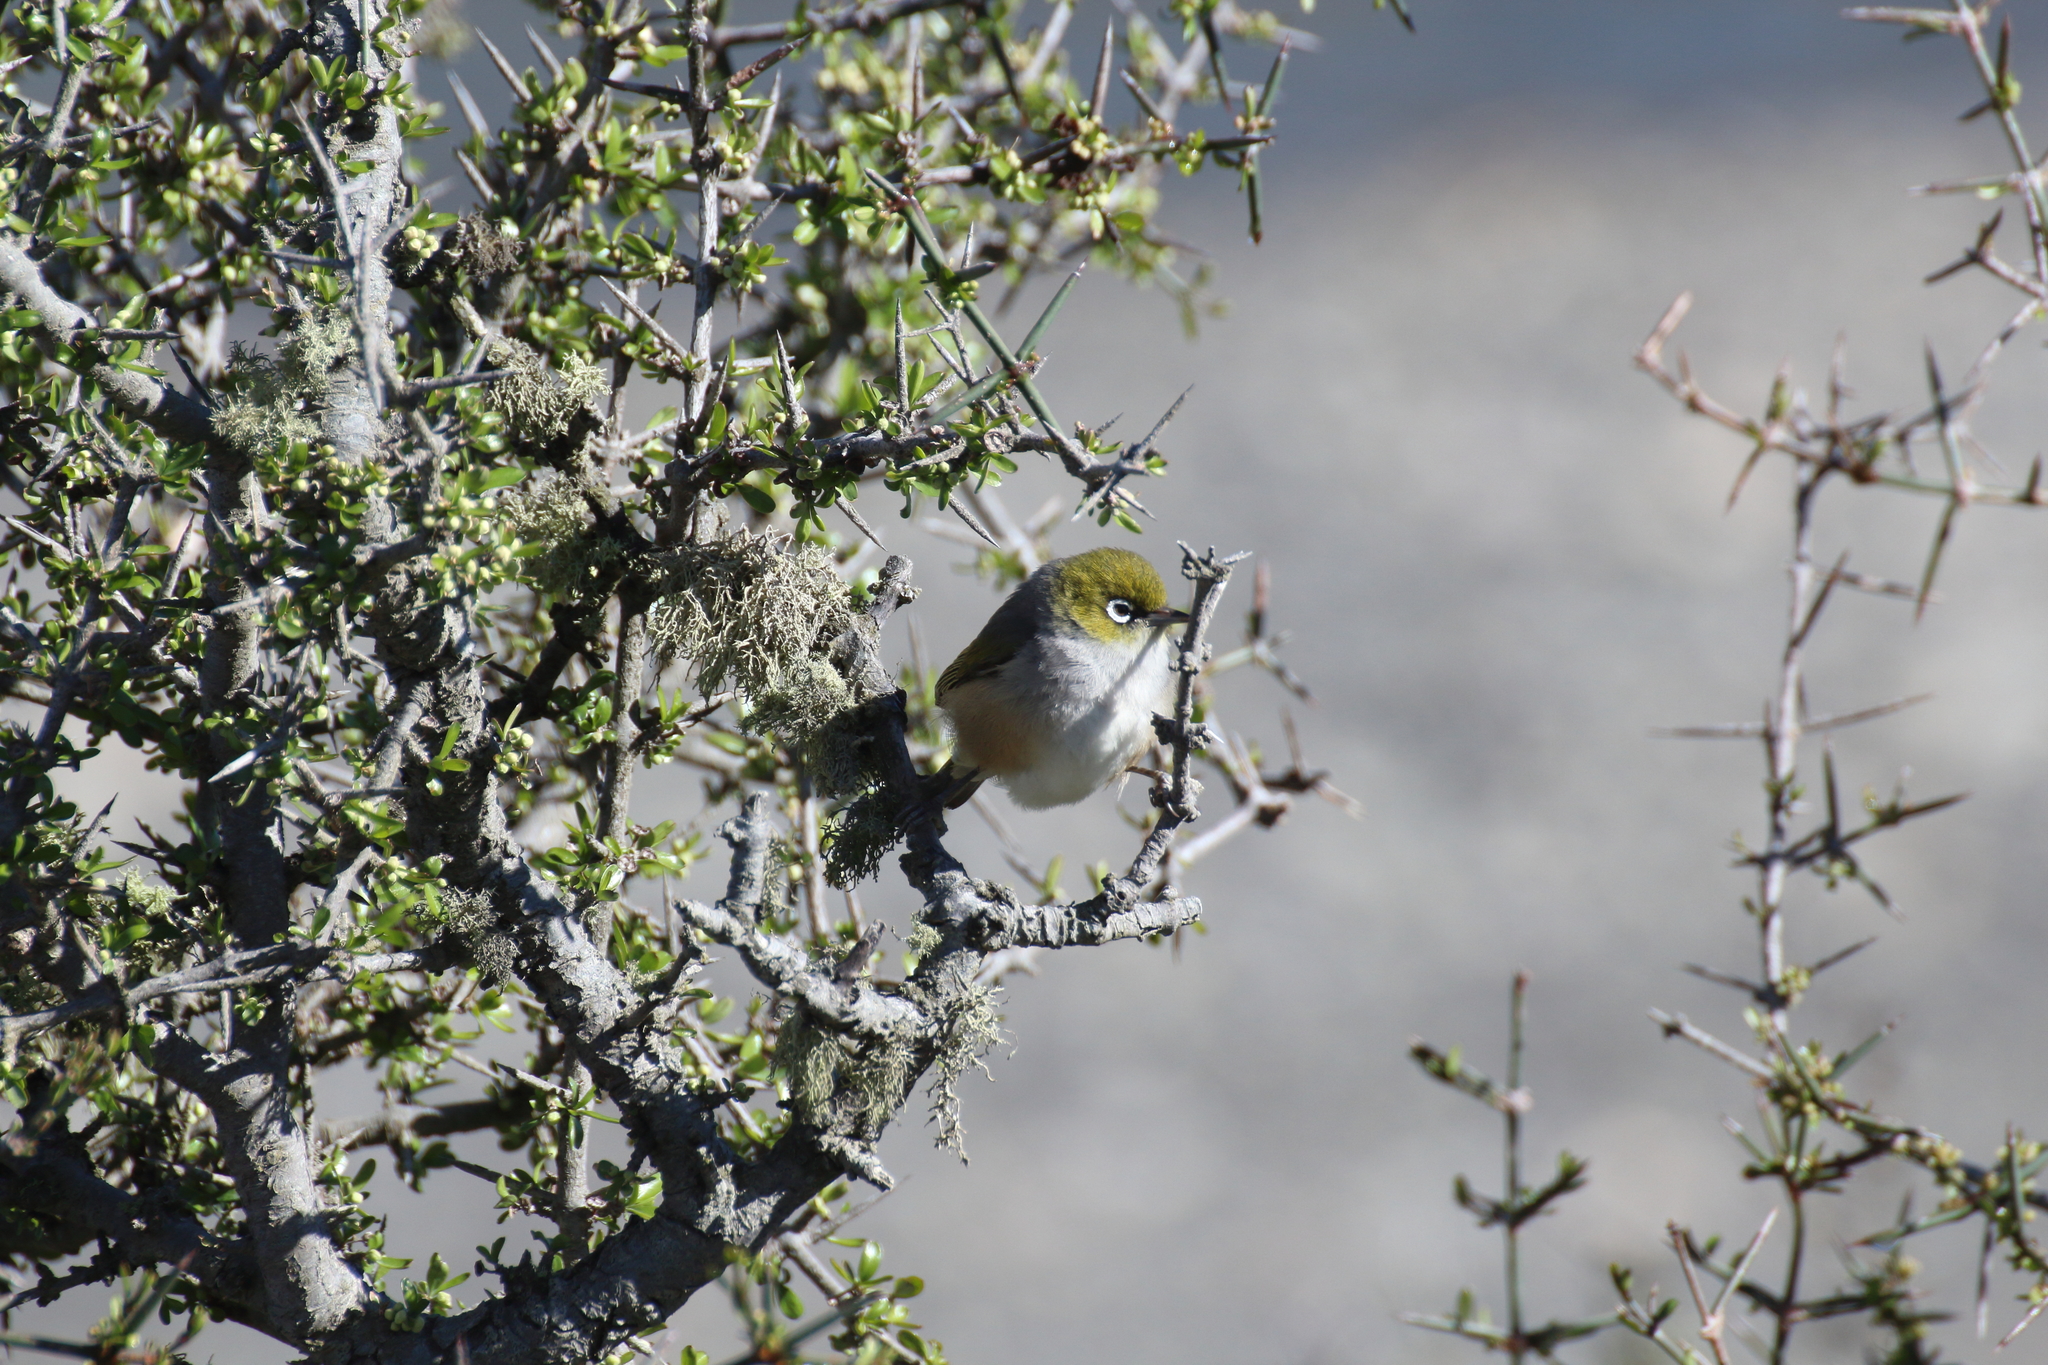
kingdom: Animalia
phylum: Chordata
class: Aves
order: Passeriformes
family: Zosteropidae
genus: Zosterops
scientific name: Zosterops lateralis
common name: Silvereye
